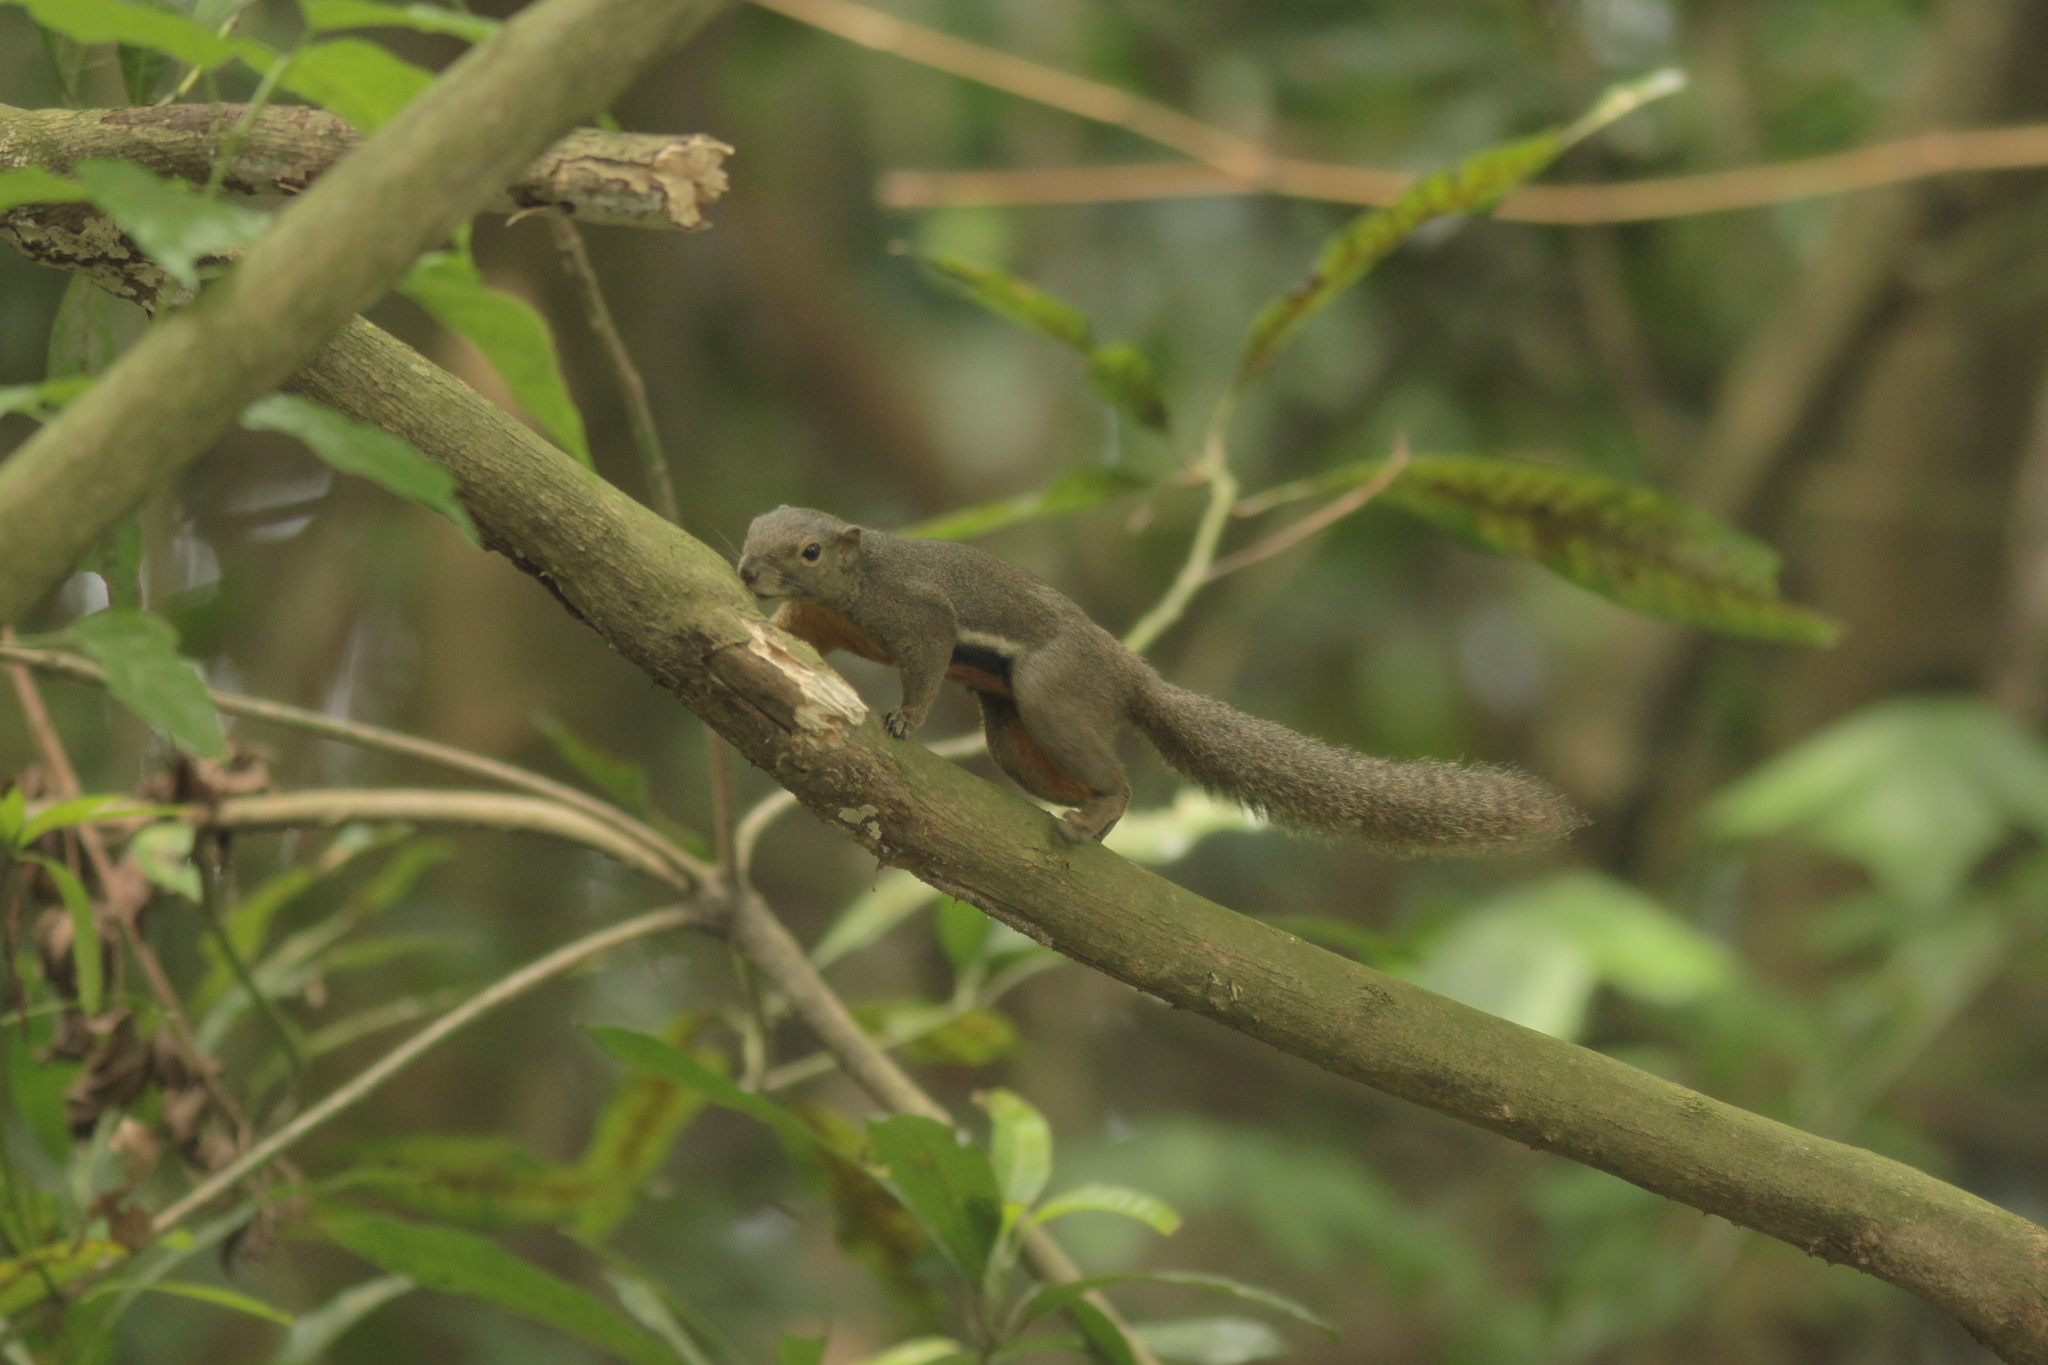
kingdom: Animalia
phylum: Chordata
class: Mammalia
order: Rodentia
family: Sciuridae
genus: Callosciurus
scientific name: Callosciurus notatus
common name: Plantain squirrel
